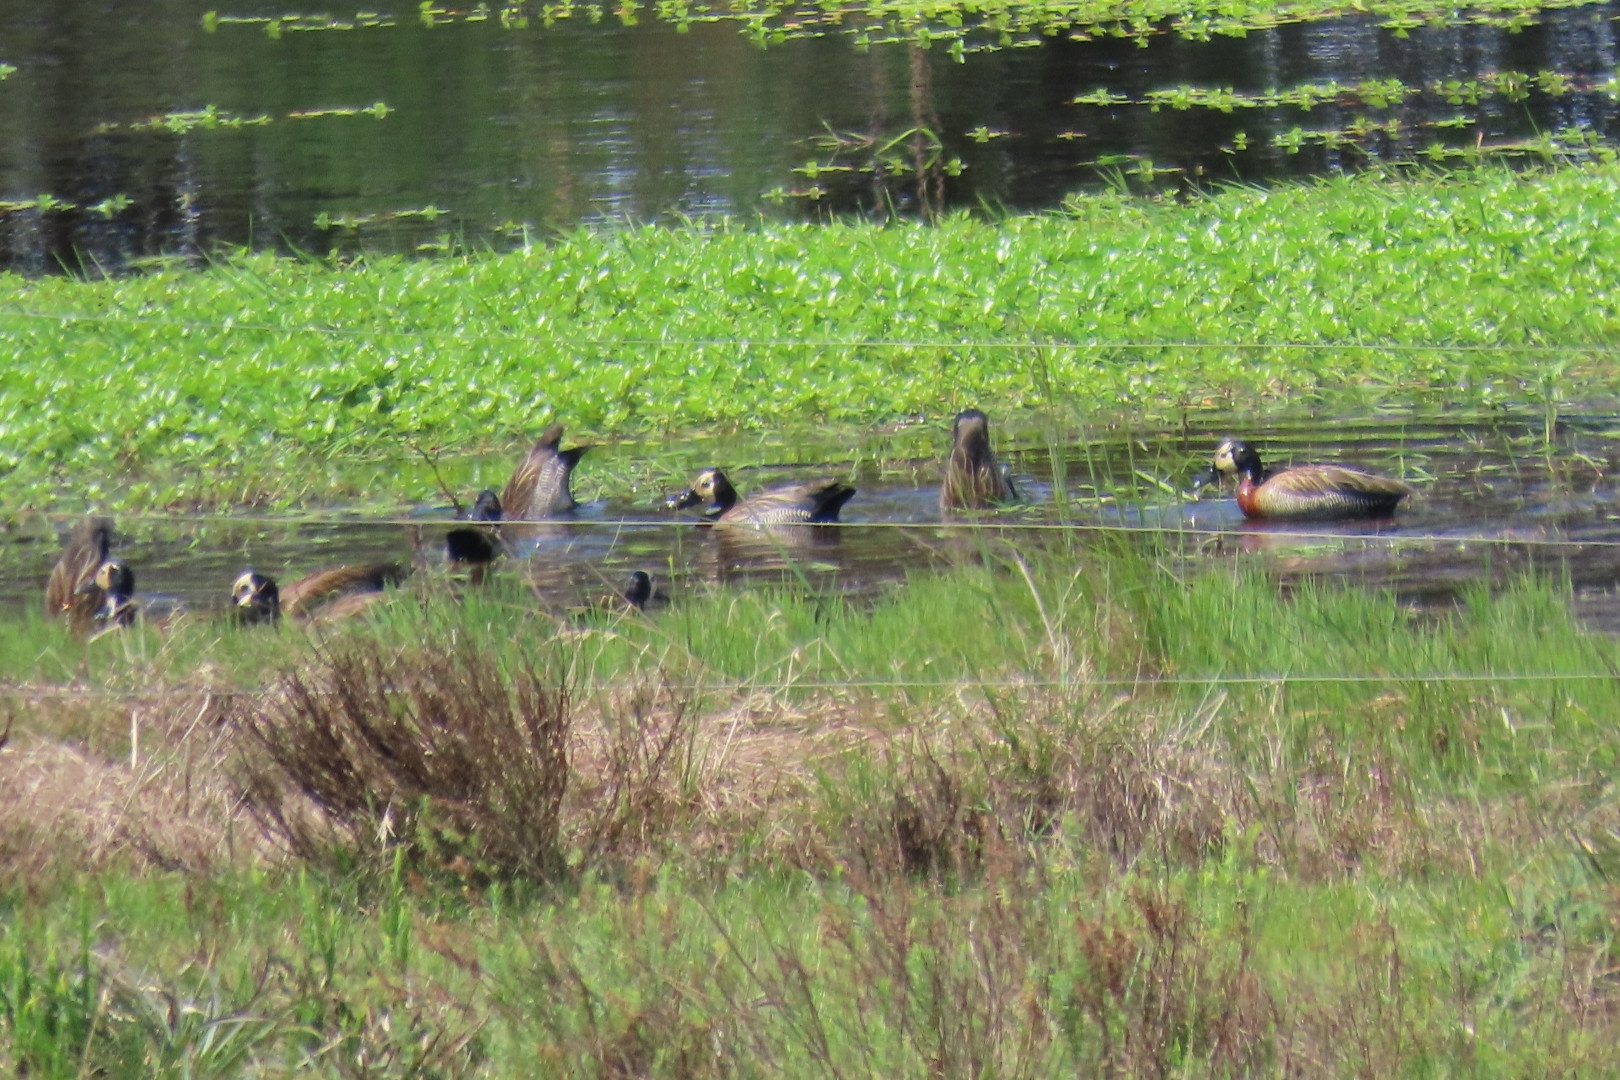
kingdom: Animalia
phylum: Chordata
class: Aves
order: Anseriformes
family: Anatidae
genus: Dendrocygna
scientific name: Dendrocygna viduata
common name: White-faced whistling duck
